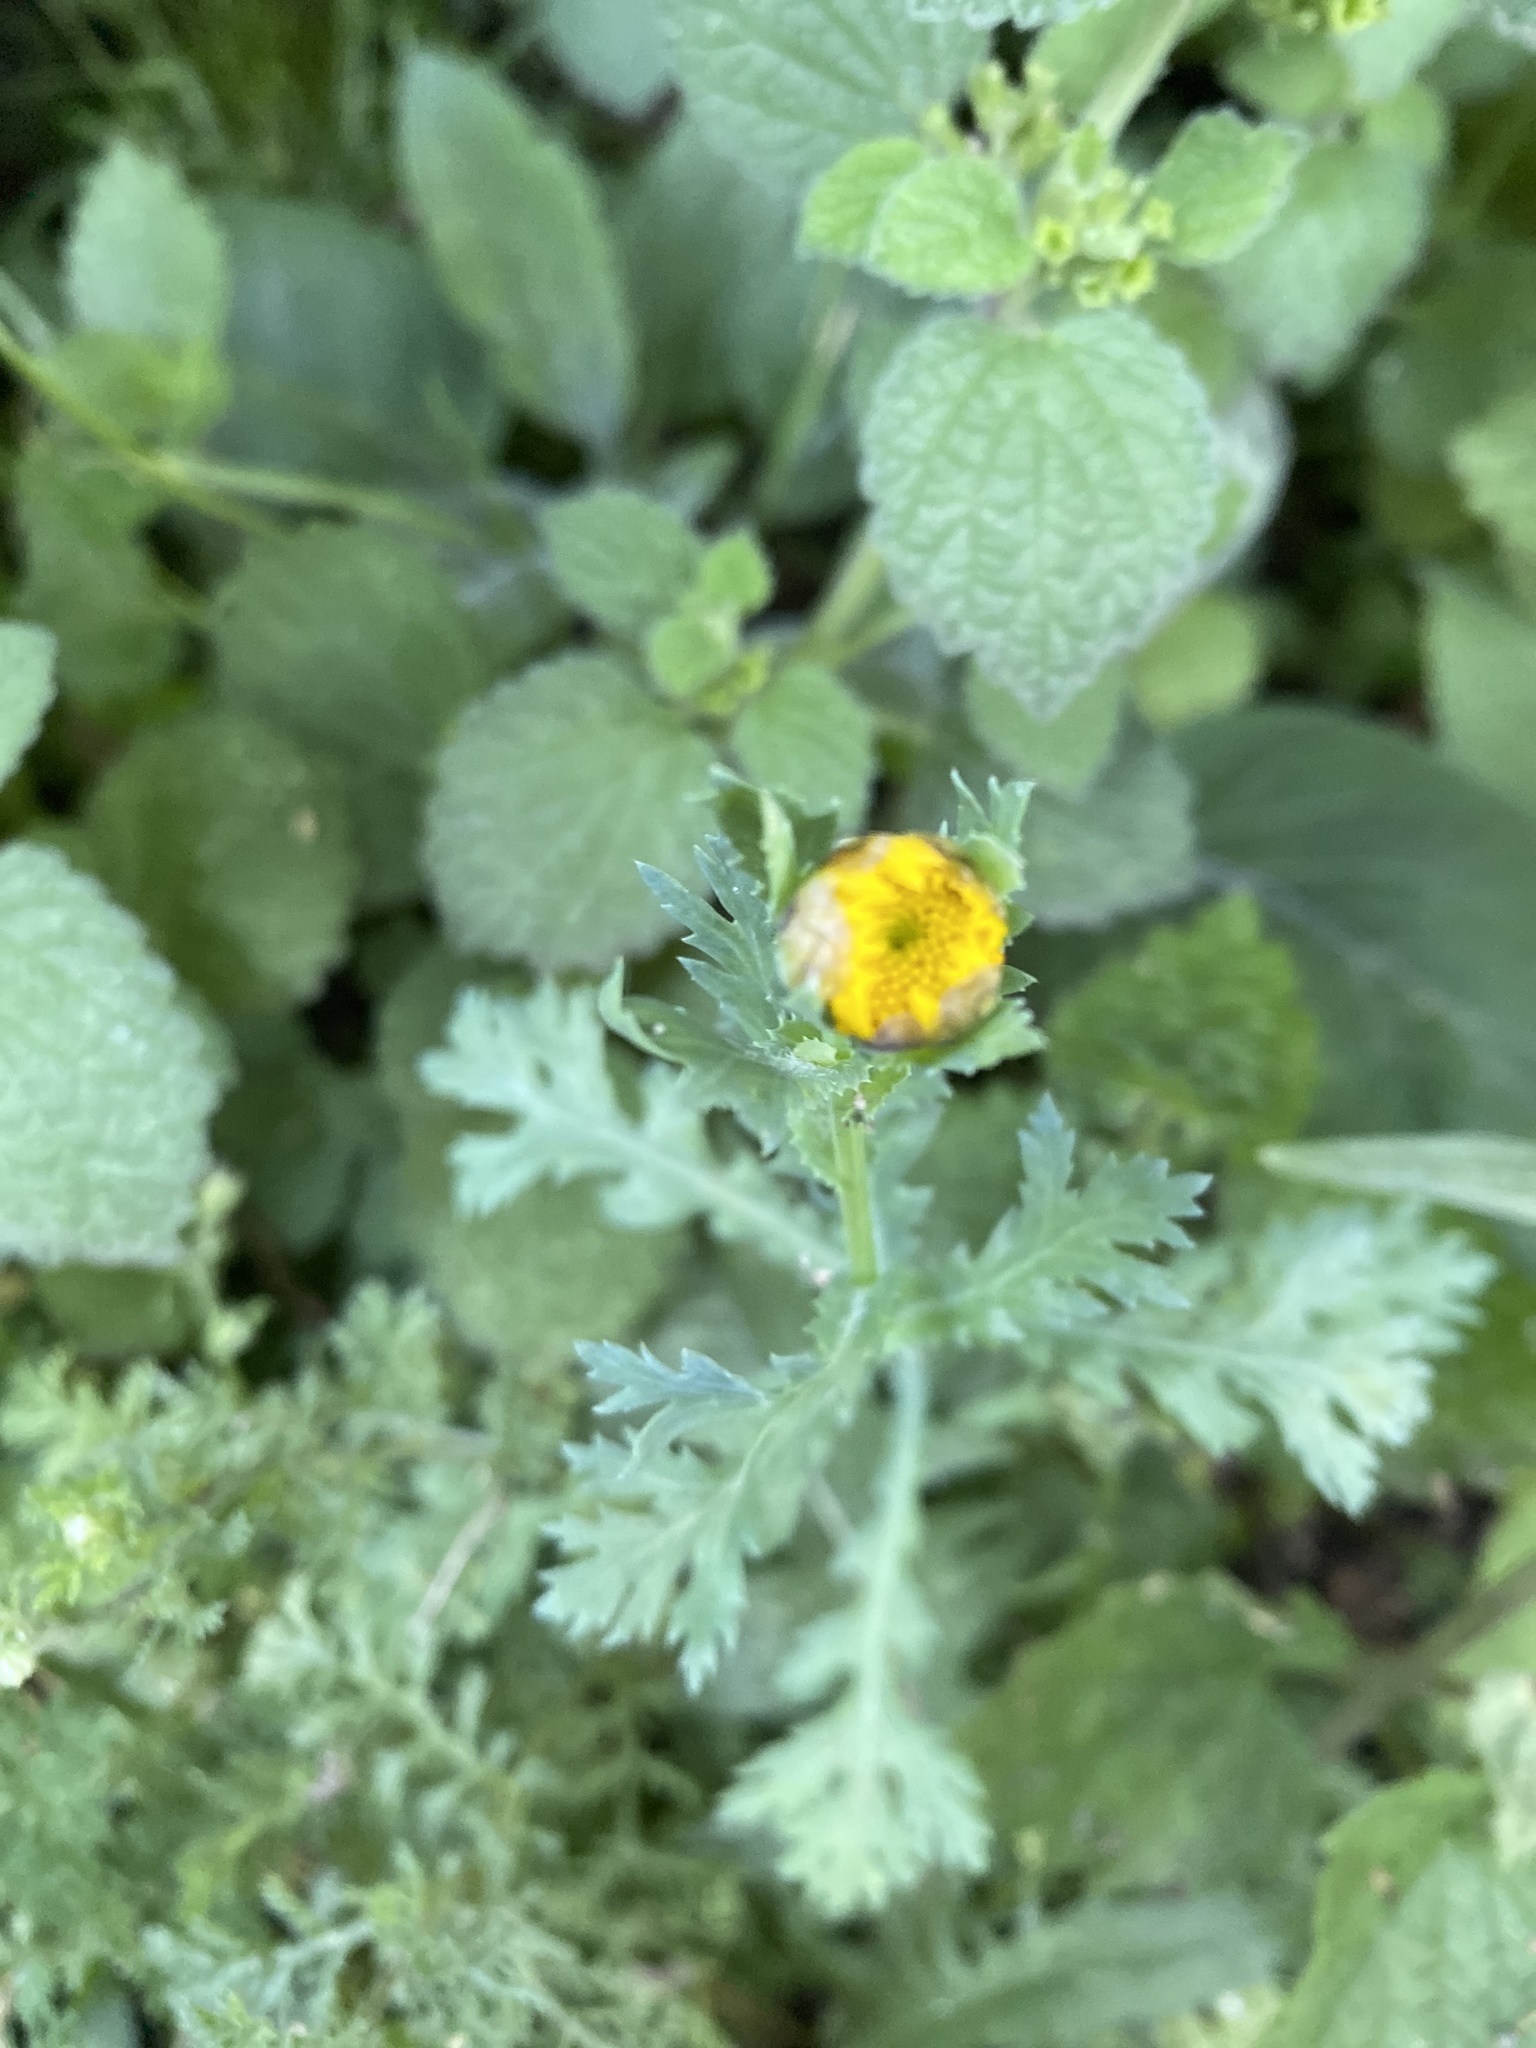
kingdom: Plantae
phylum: Tracheophyta
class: Magnoliopsida
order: Asterales
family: Asteraceae
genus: Glebionis
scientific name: Glebionis segetum
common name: Corndaisy
